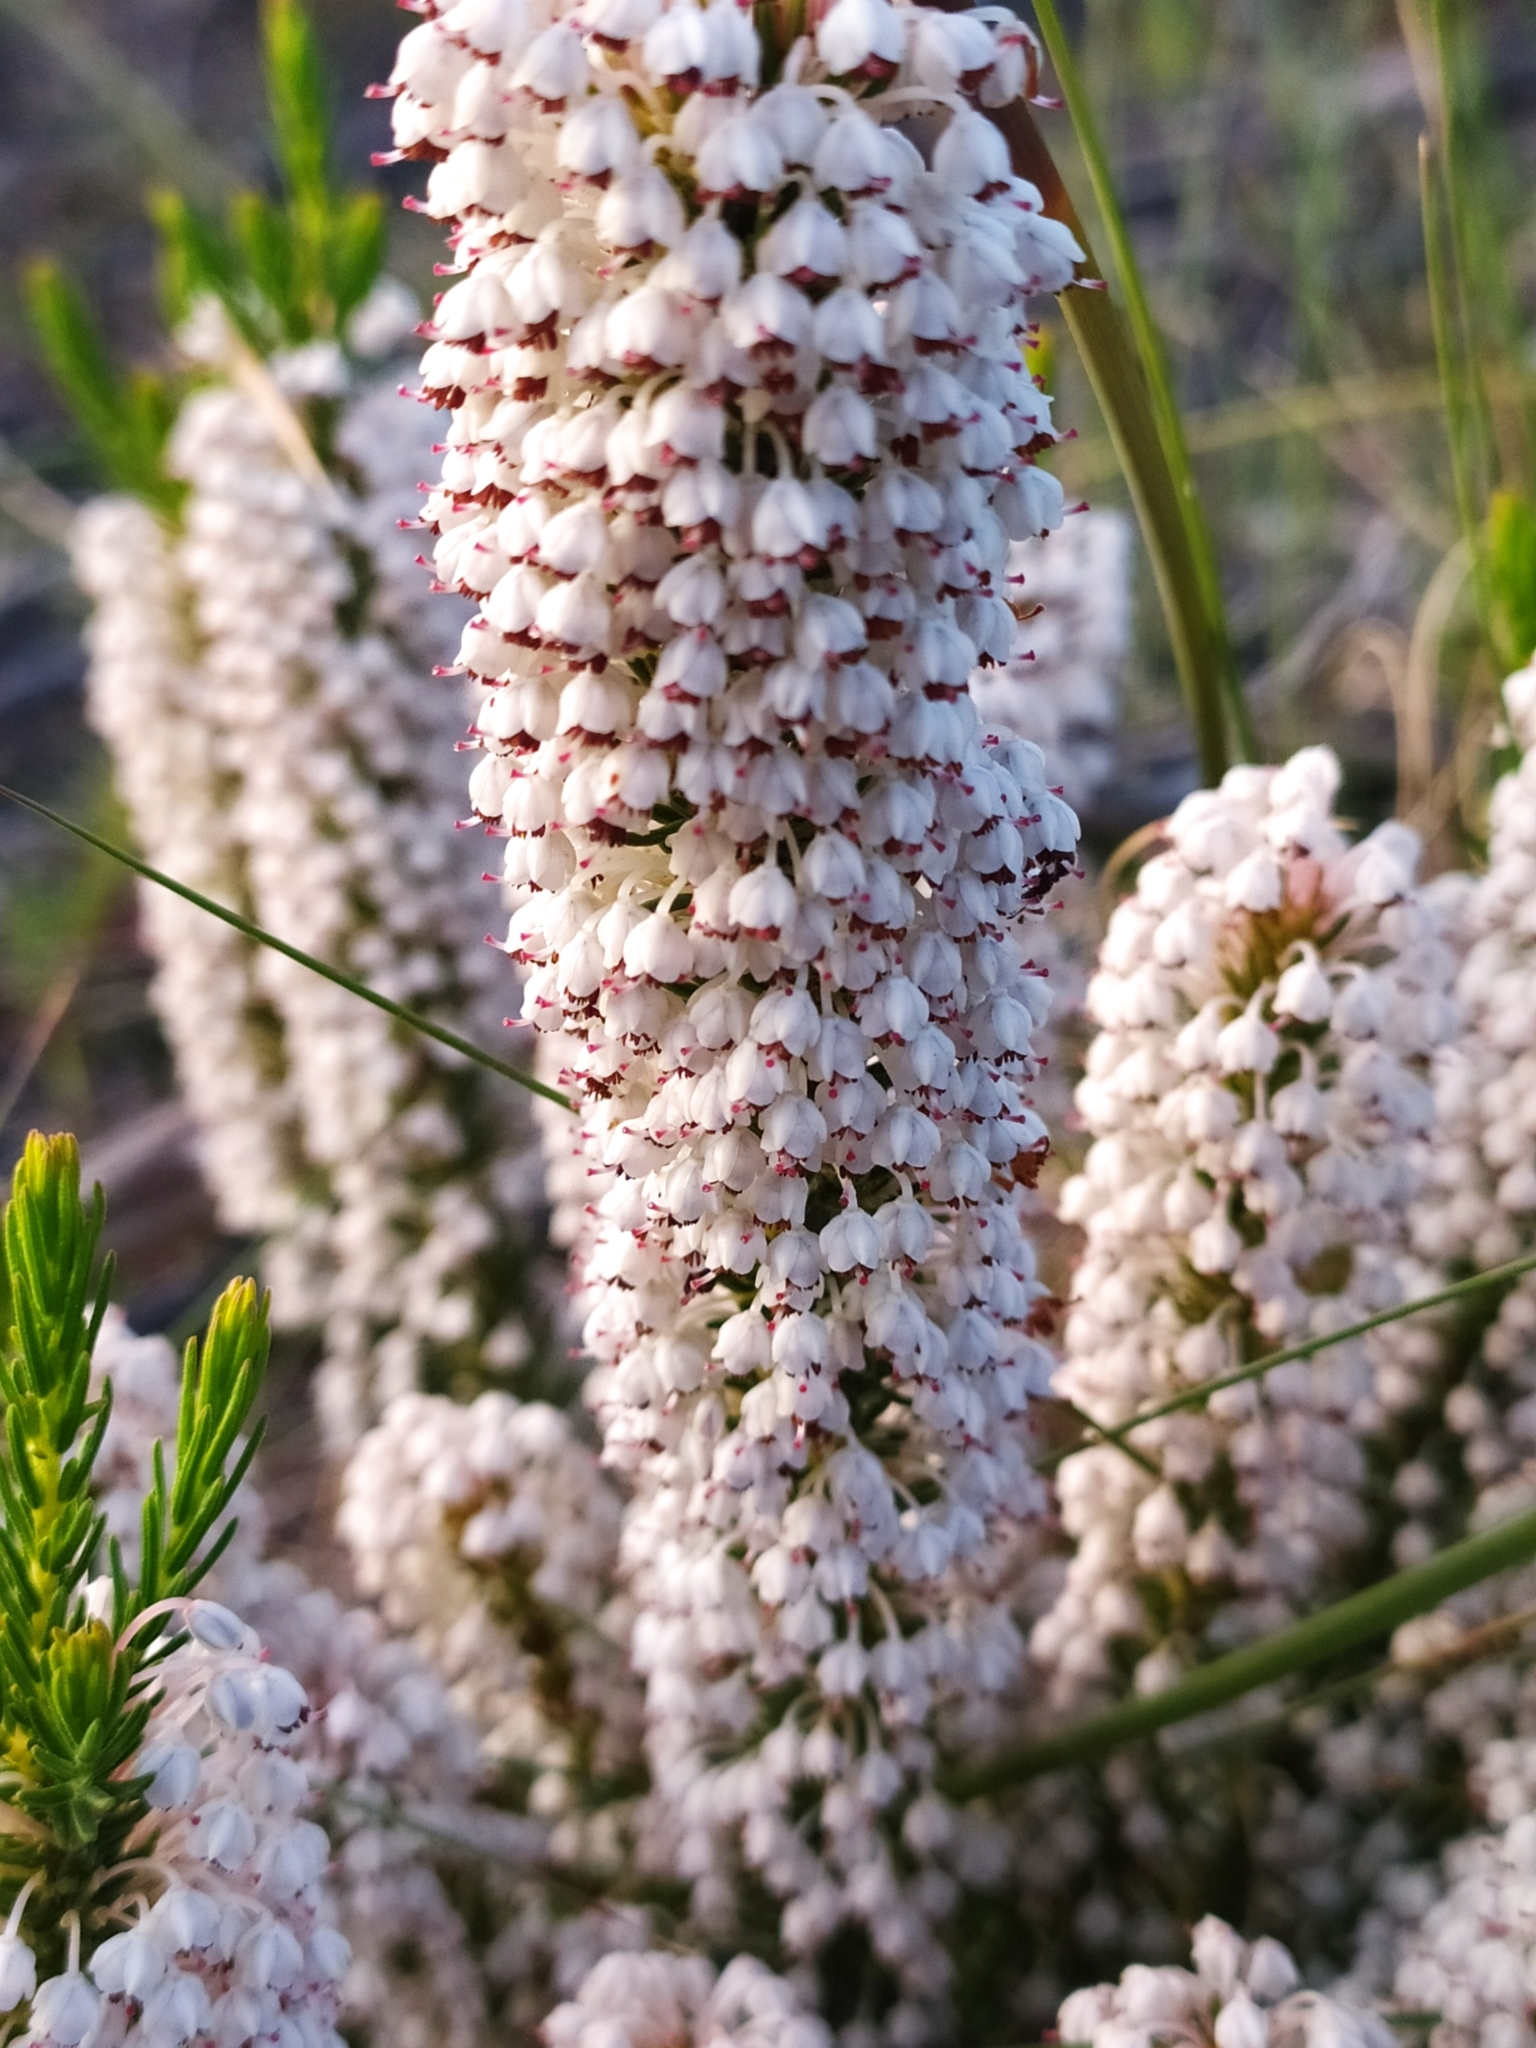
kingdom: Plantae
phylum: Tracheophyta
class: Magnoliopsida
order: Ericales
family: Ericaceae
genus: Erica
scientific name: Erica rubiginosa
